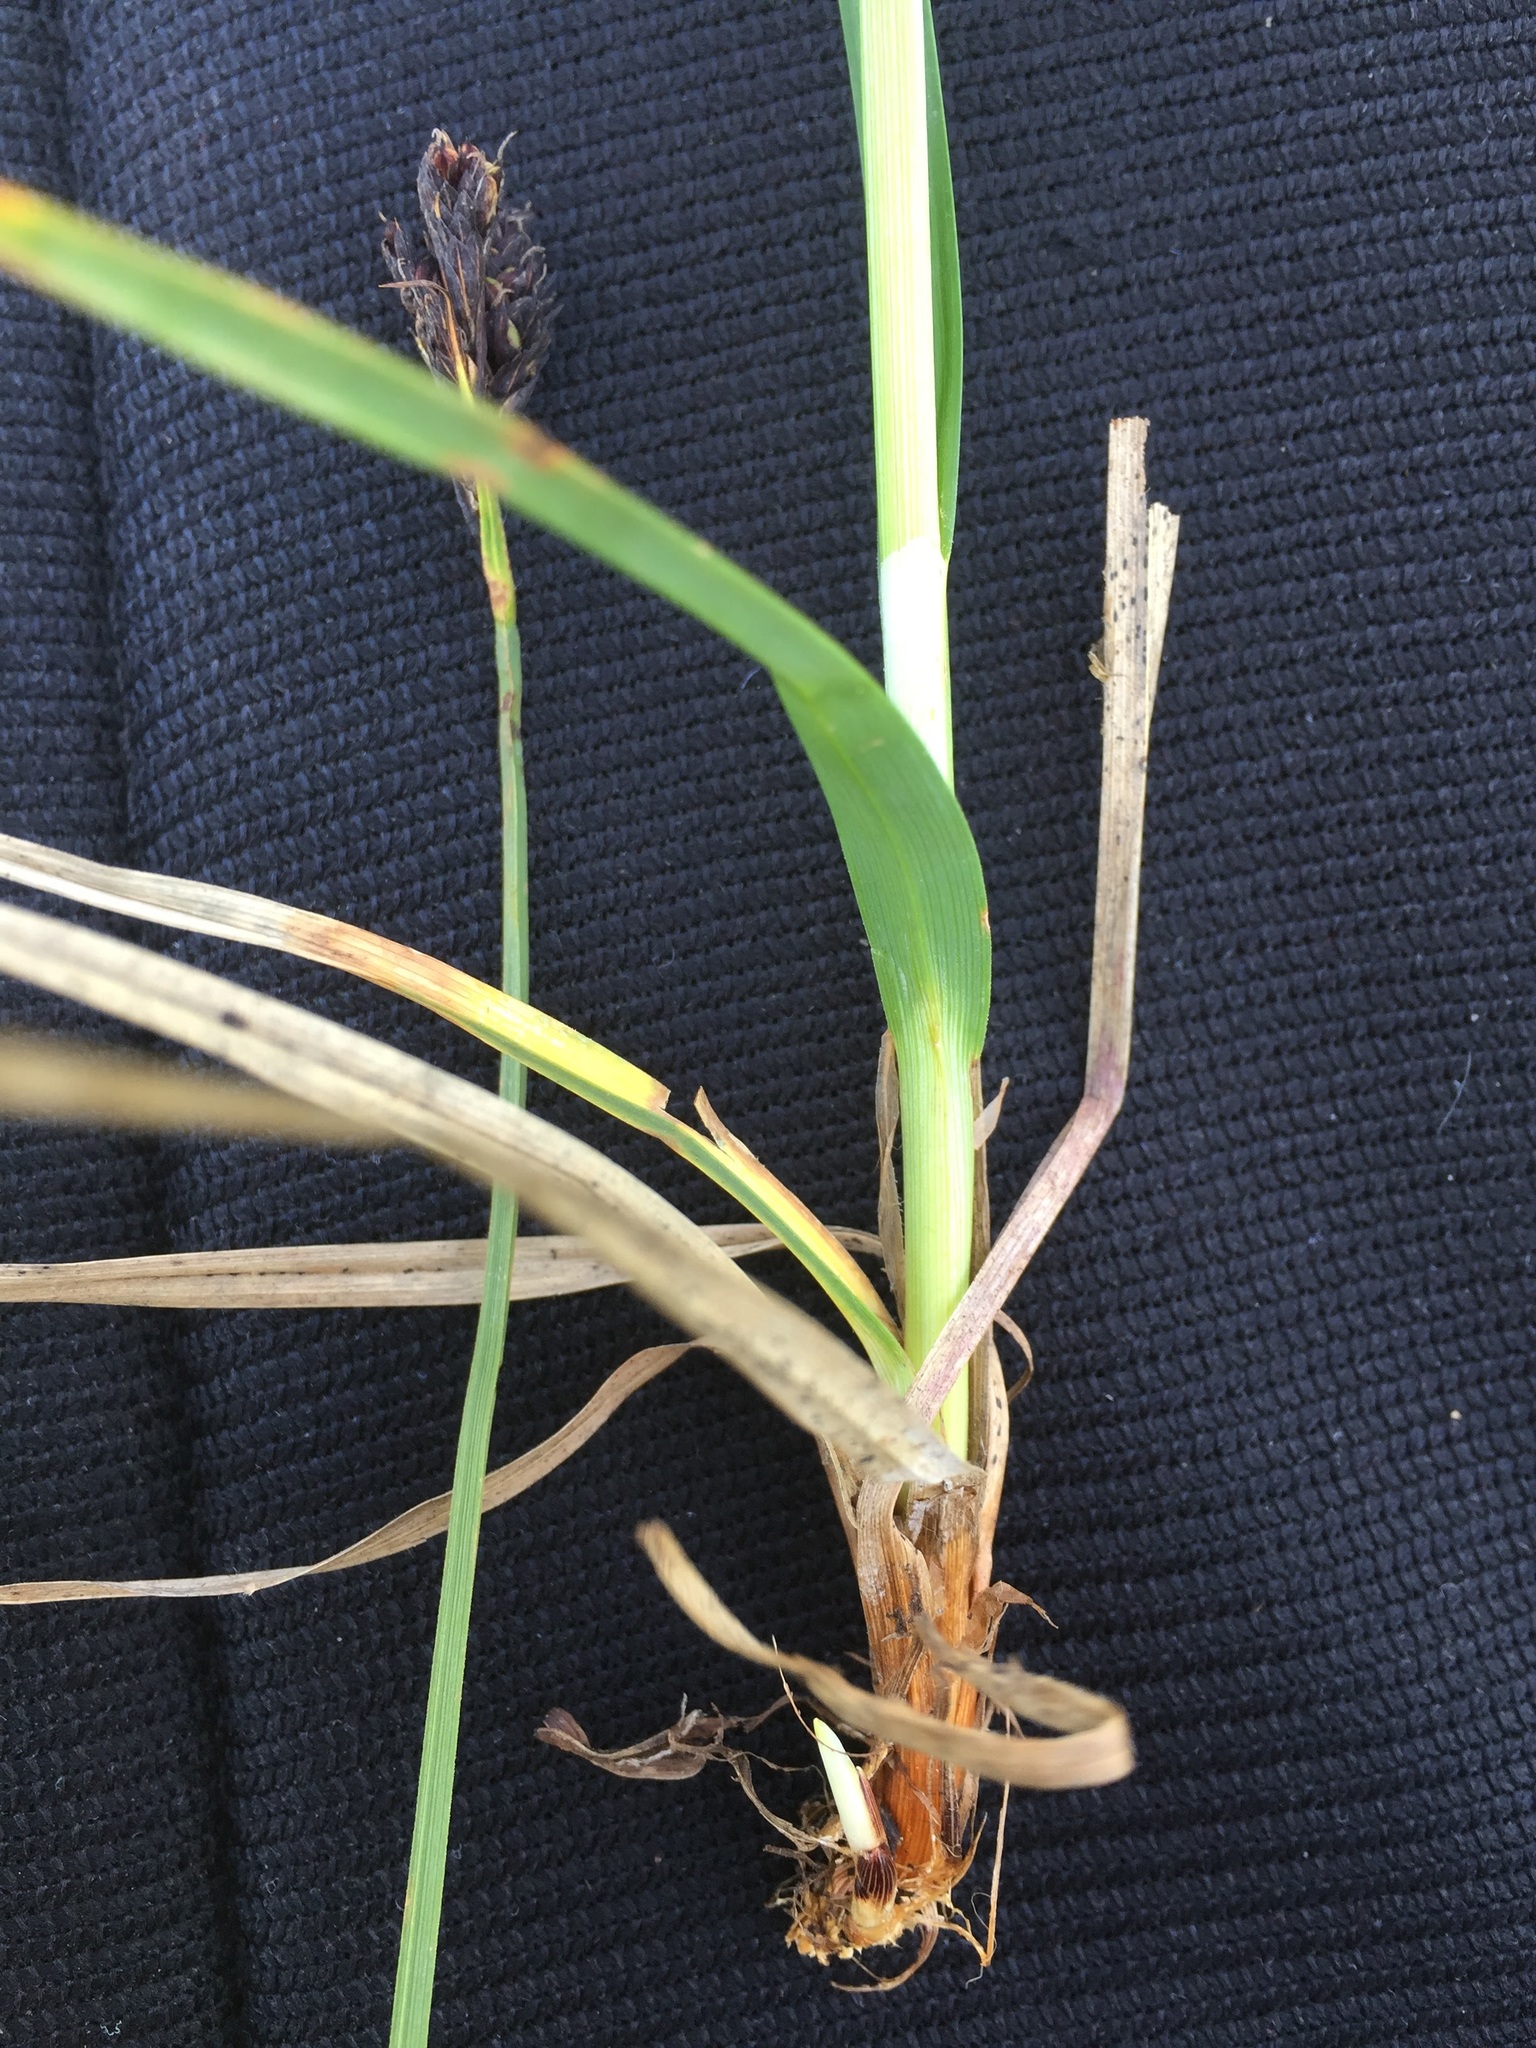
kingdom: Plantae
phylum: Tracheophyta
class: Liliopsida
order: Poales
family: Cyperaceae
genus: Carex
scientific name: Carex aterrima
